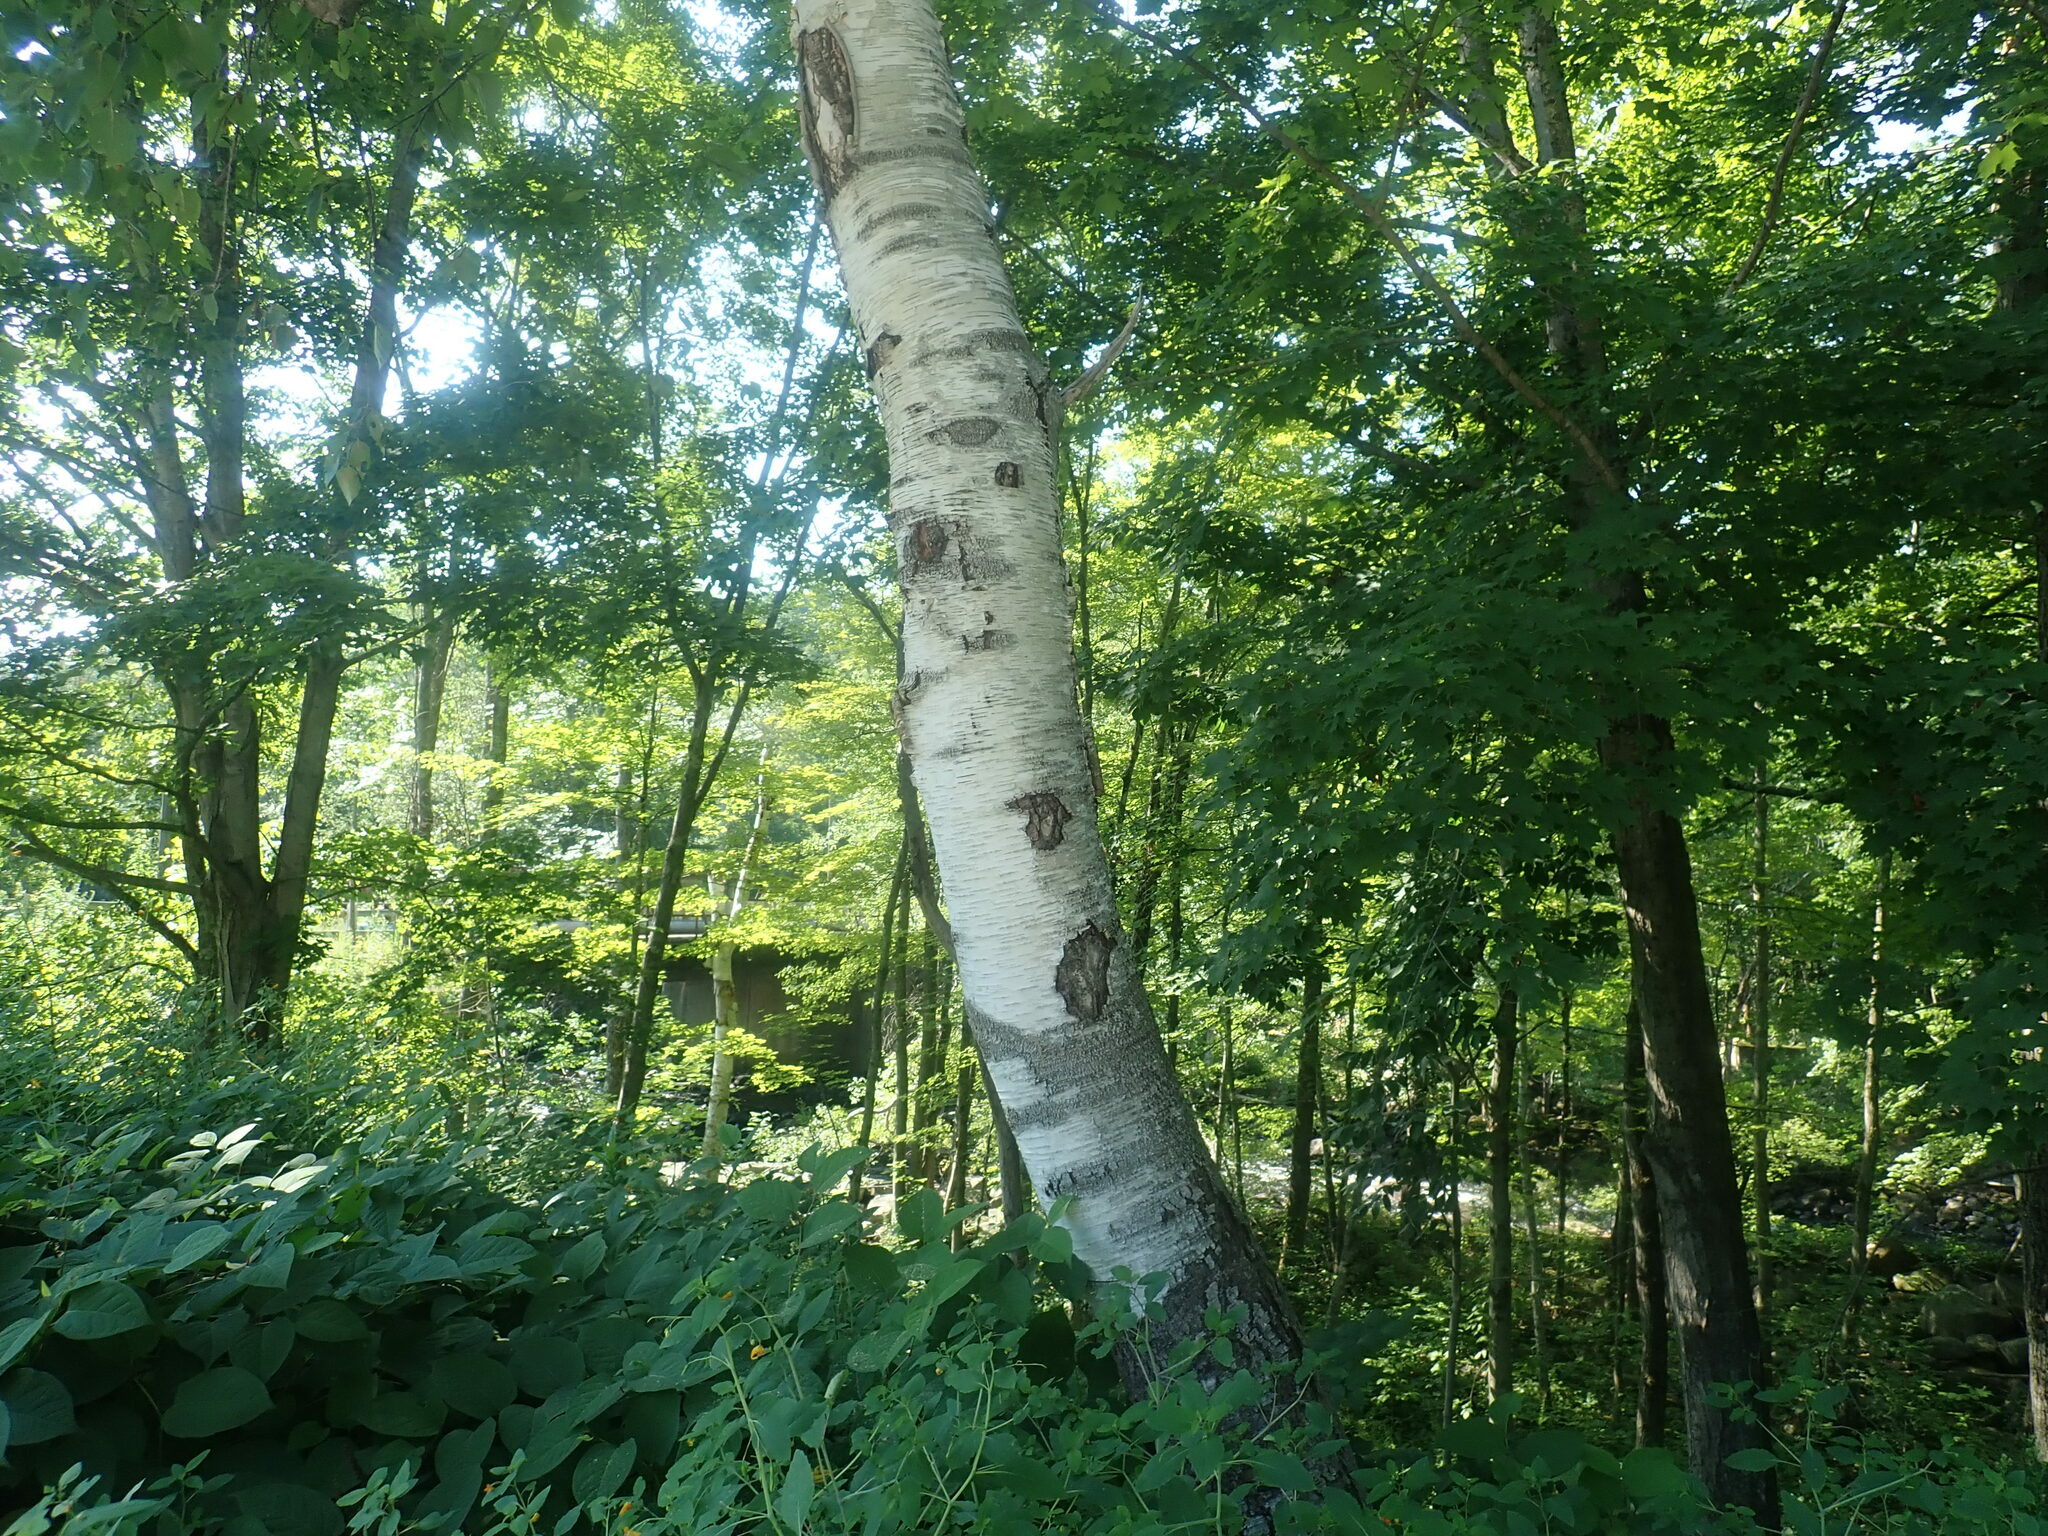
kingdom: Plantae
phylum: Tracheophyta
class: Magnoliopsida
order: Fagales
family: Betulaceae
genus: Betula
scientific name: Betula papyrifera
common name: Paper birch
